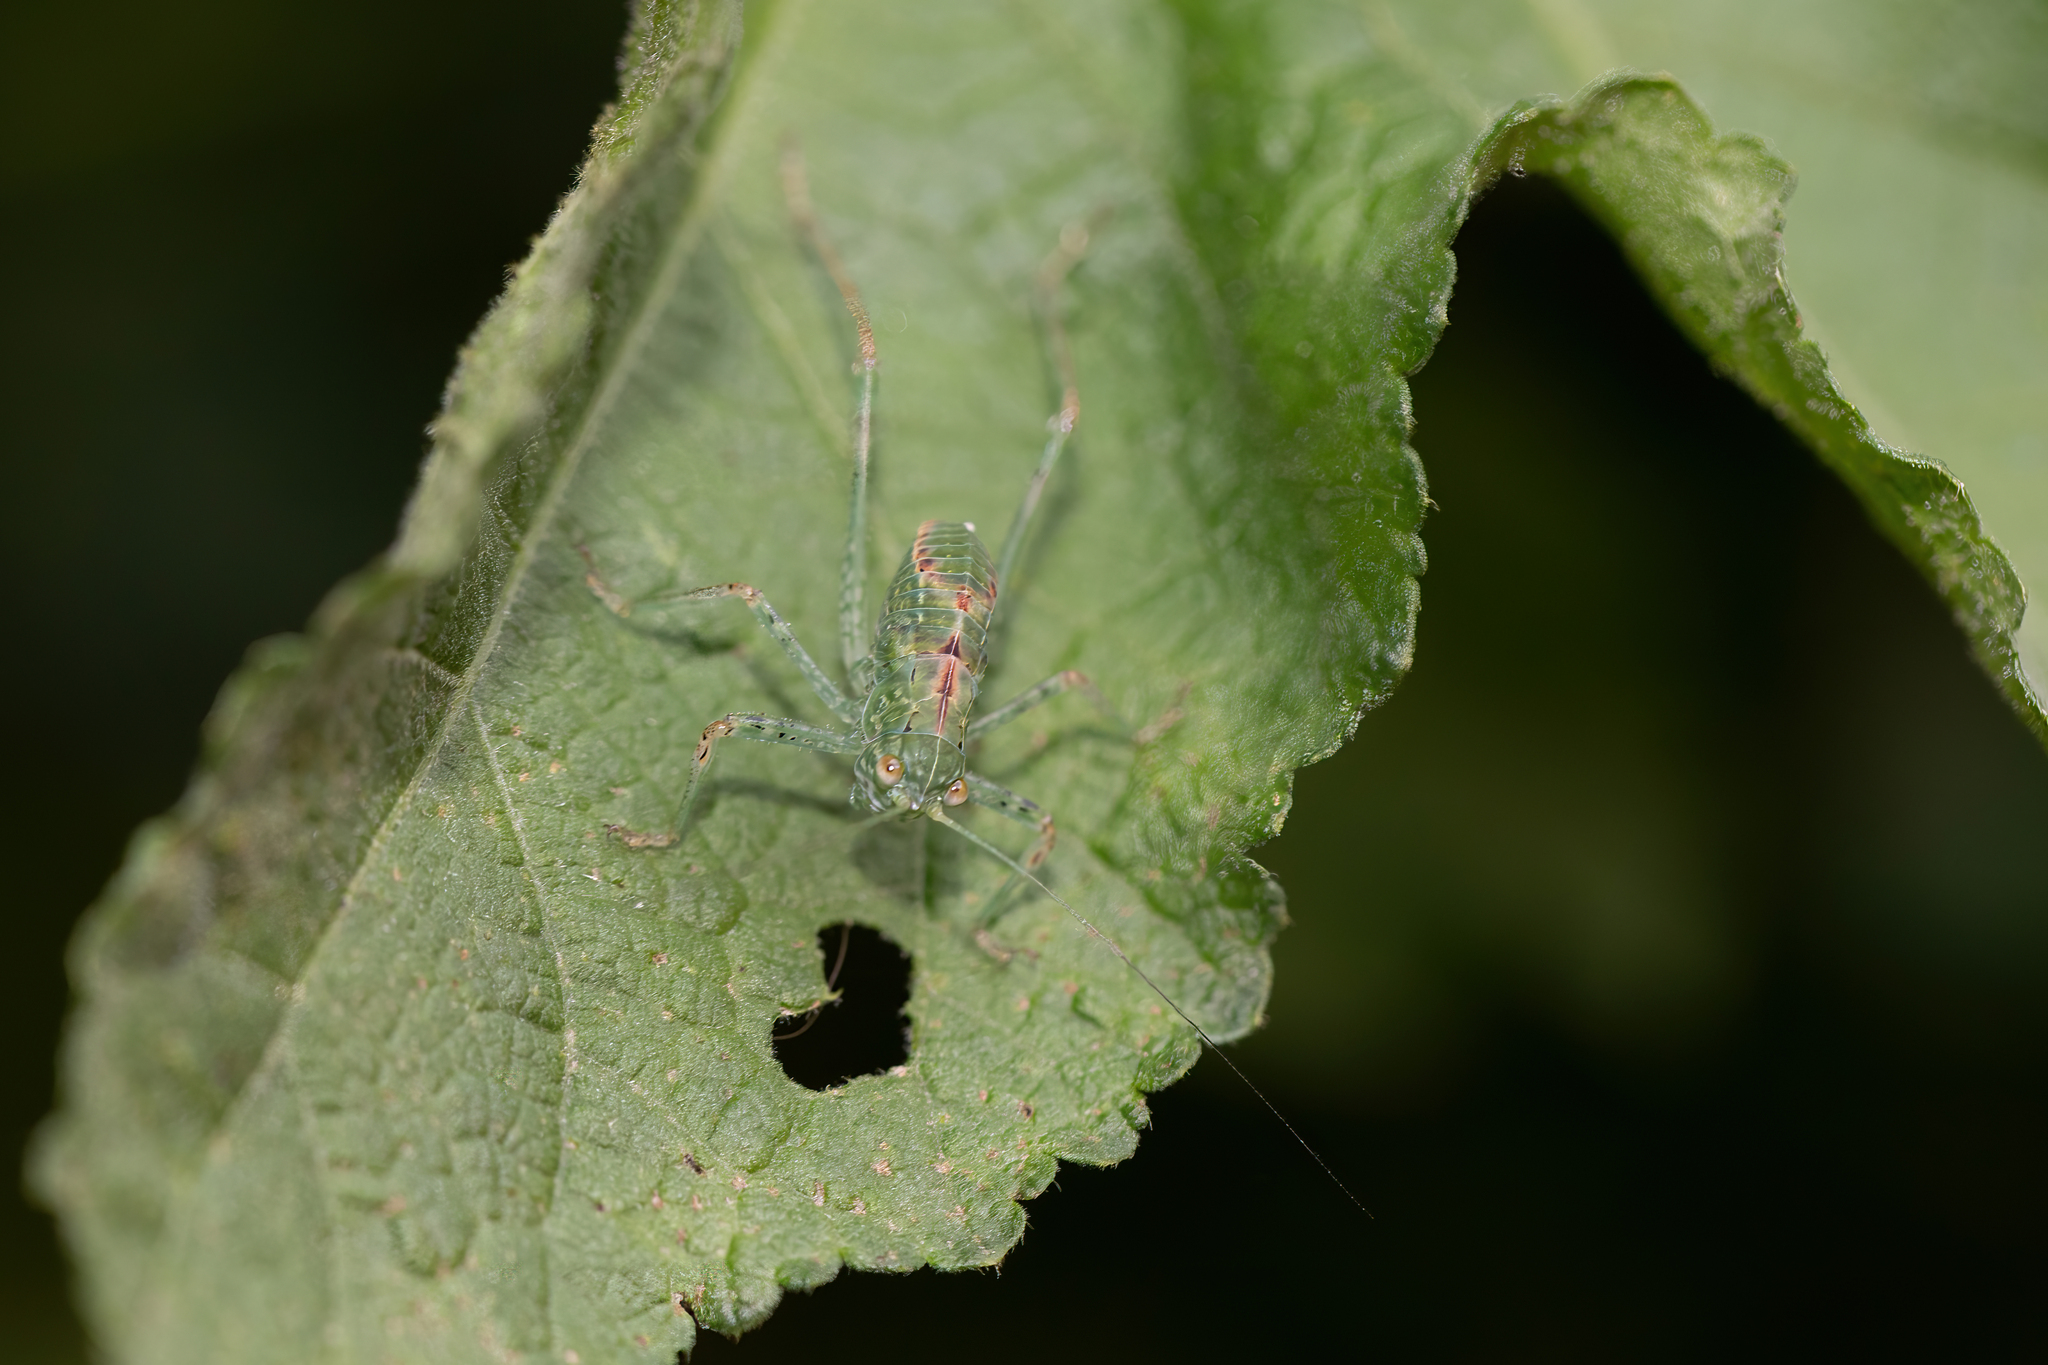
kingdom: Animalia
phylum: Arthropoda
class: Insecta
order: Orthoptera
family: Tettigoniidae
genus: Syntechna
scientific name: Syntechna tarasca
